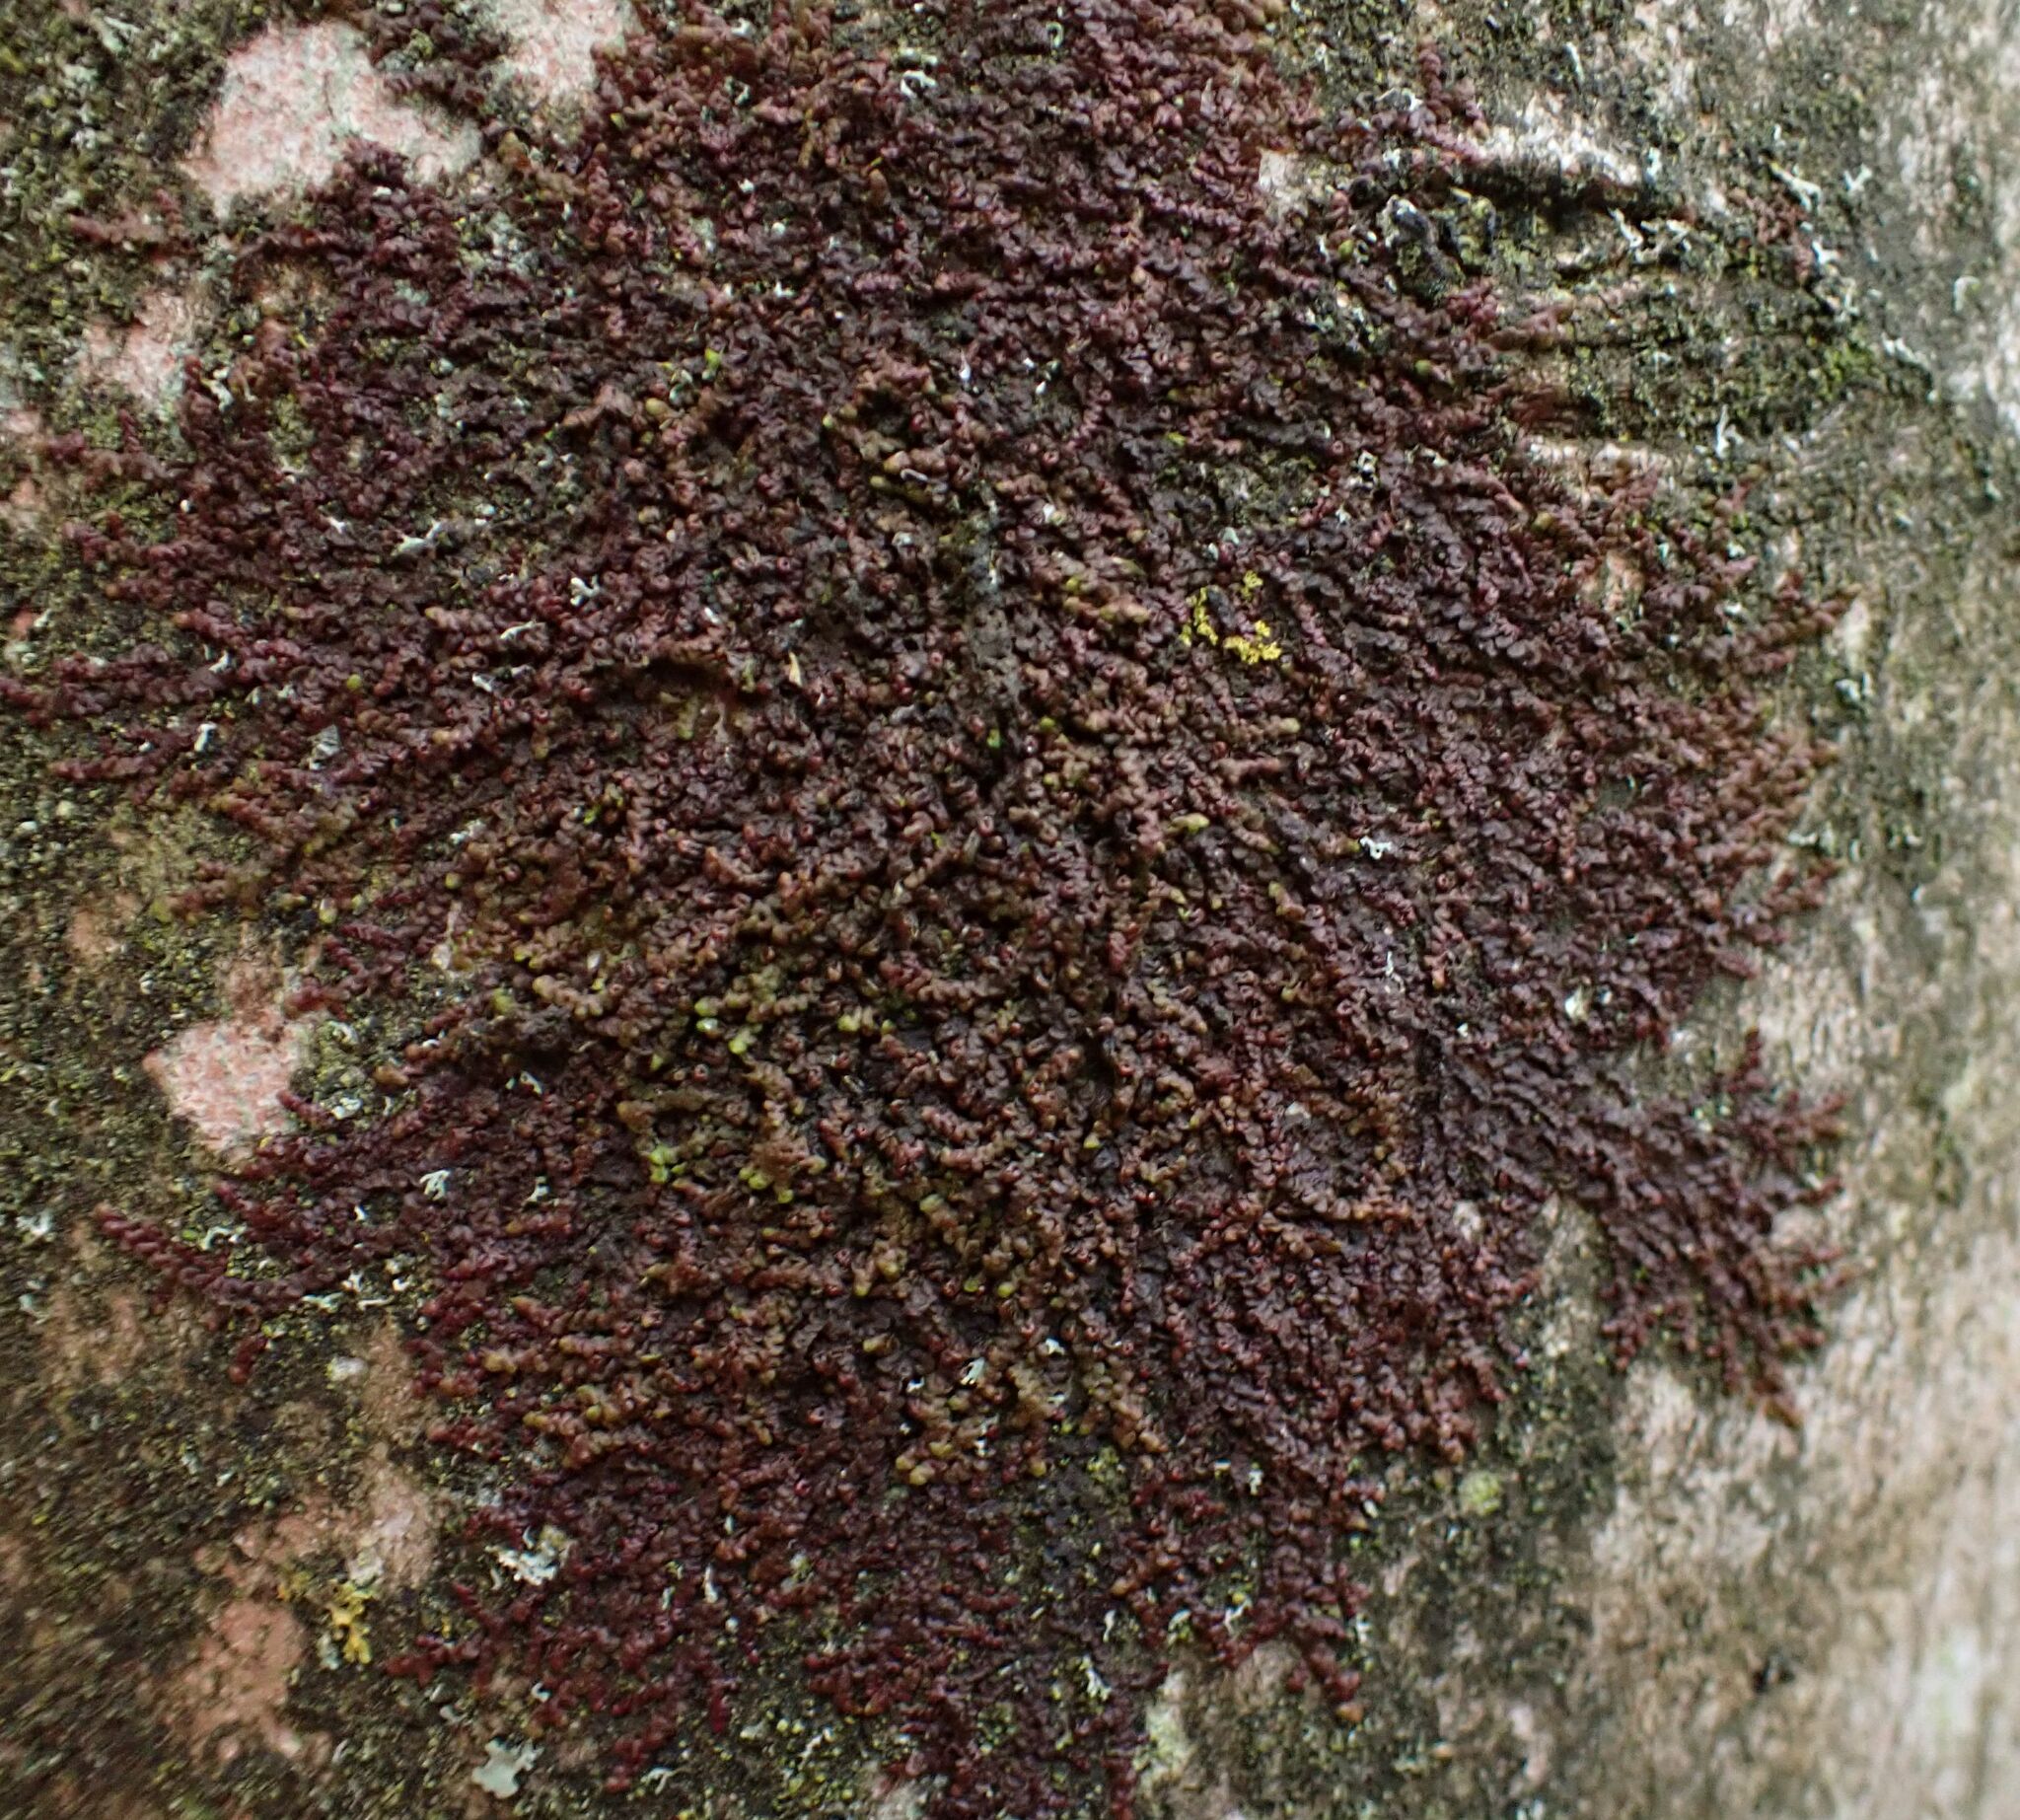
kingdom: Plantae
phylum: Marchantiophyta
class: Jungermanniopsida
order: Porellales
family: Frullaniaceae
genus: Frullania
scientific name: Frullania dilatata
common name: Dilated scalewort
